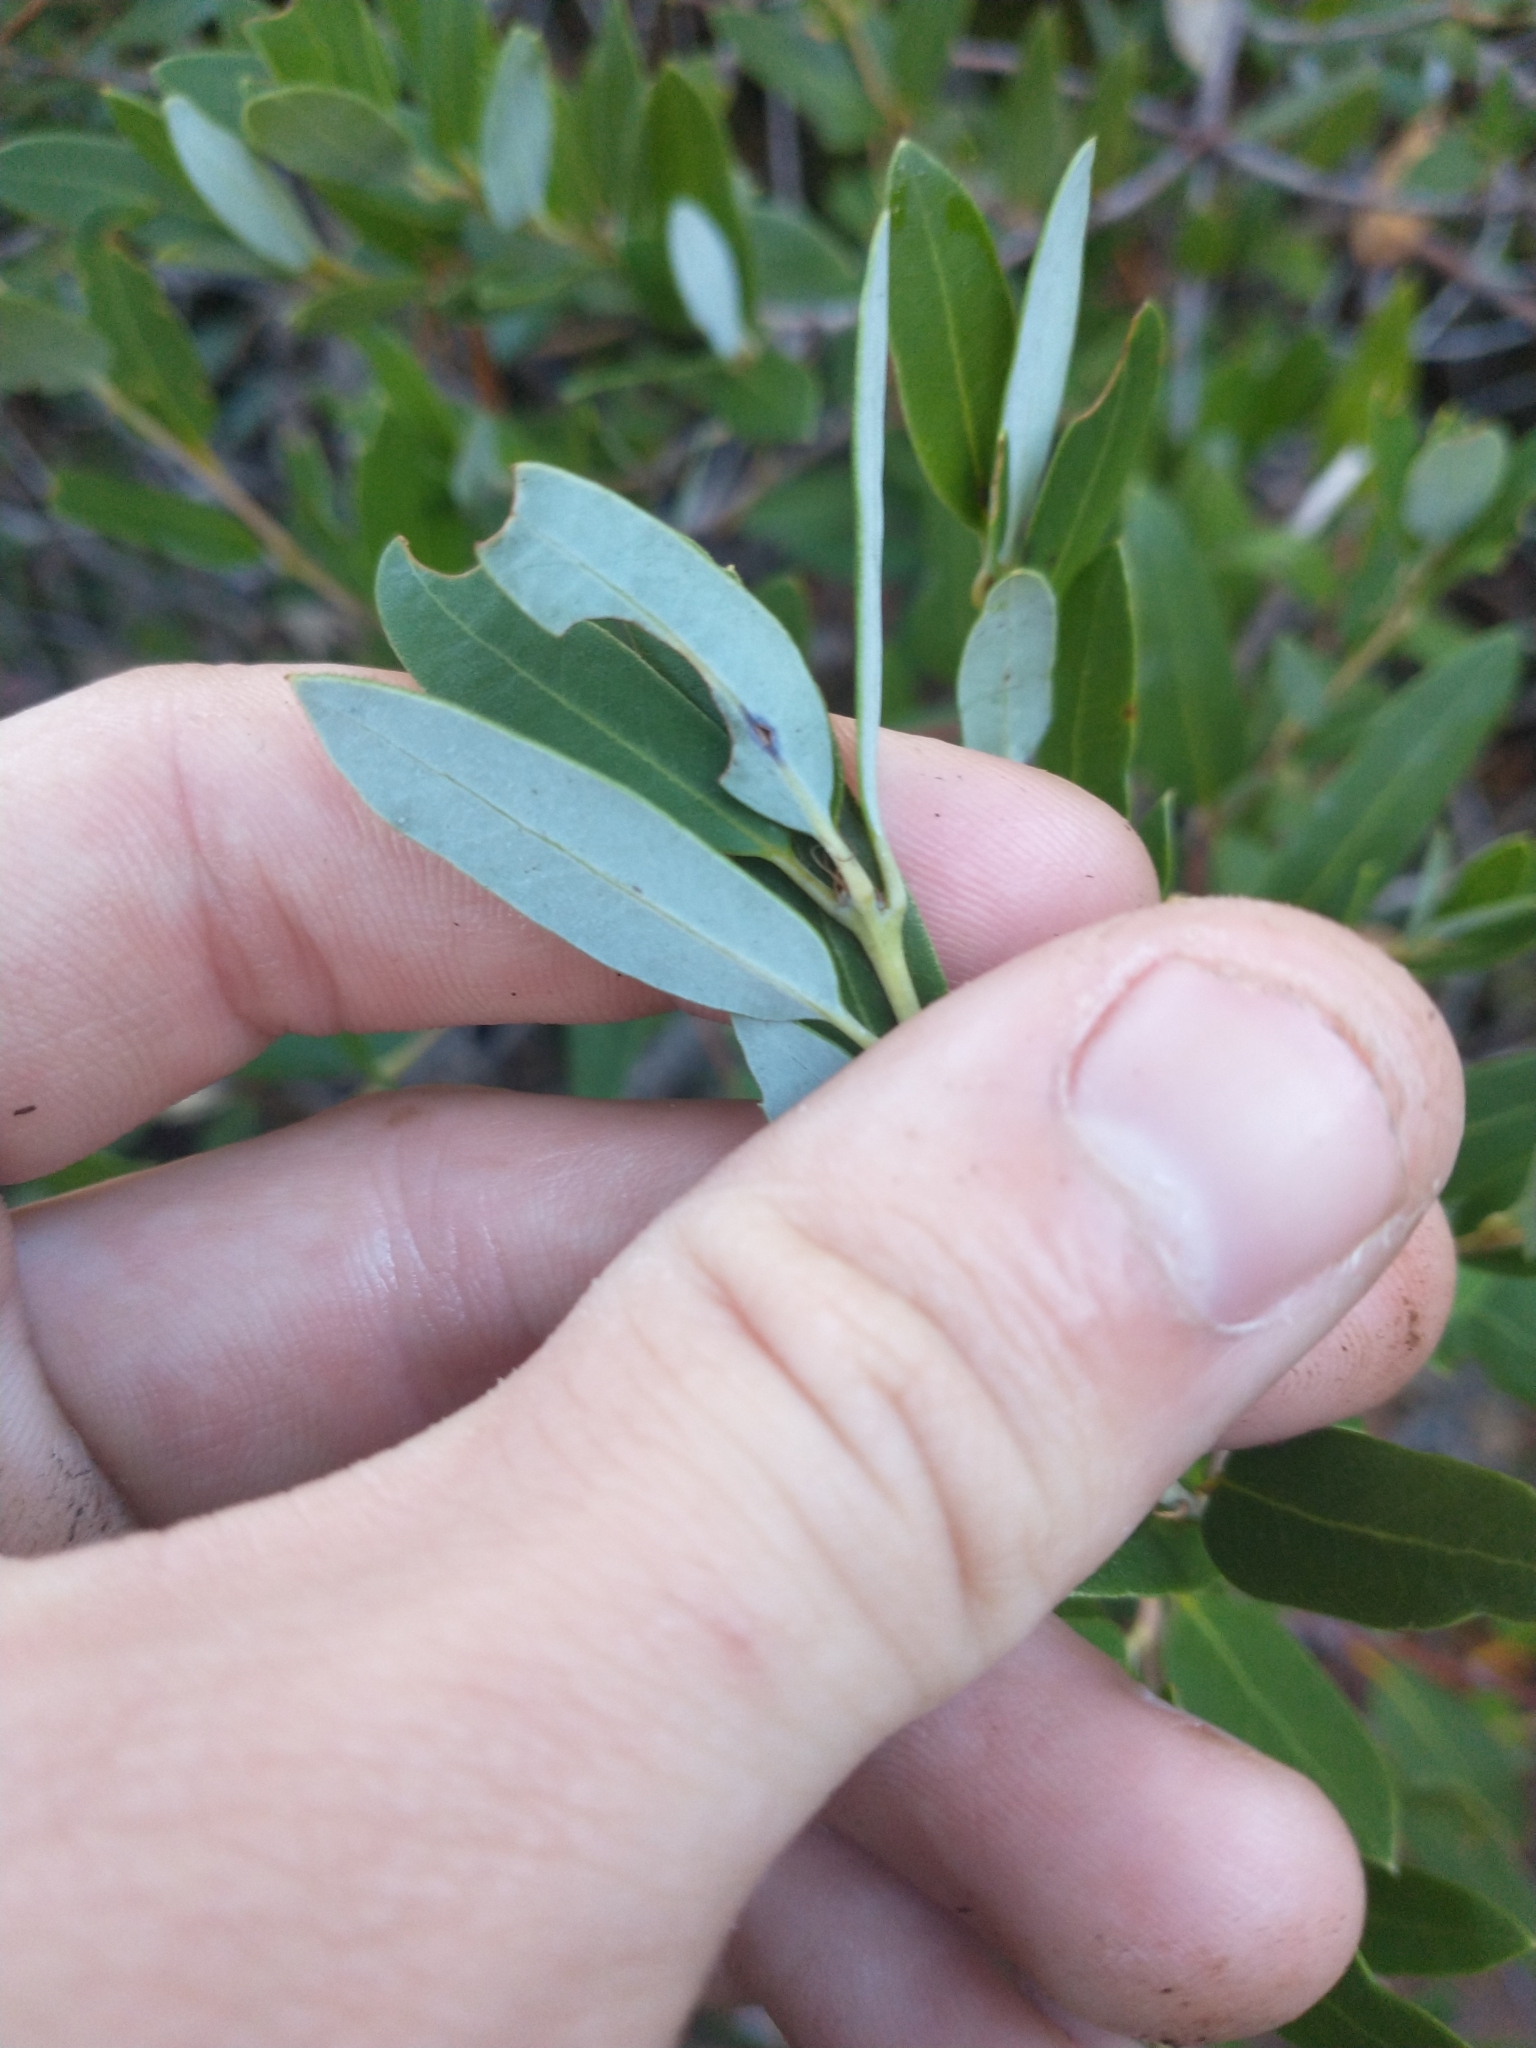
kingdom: Plantae
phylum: Tracheophyta
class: Magnoliopsida
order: Fagales
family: Fagaceae
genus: Quercus
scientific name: Quercus vacciniifolia
